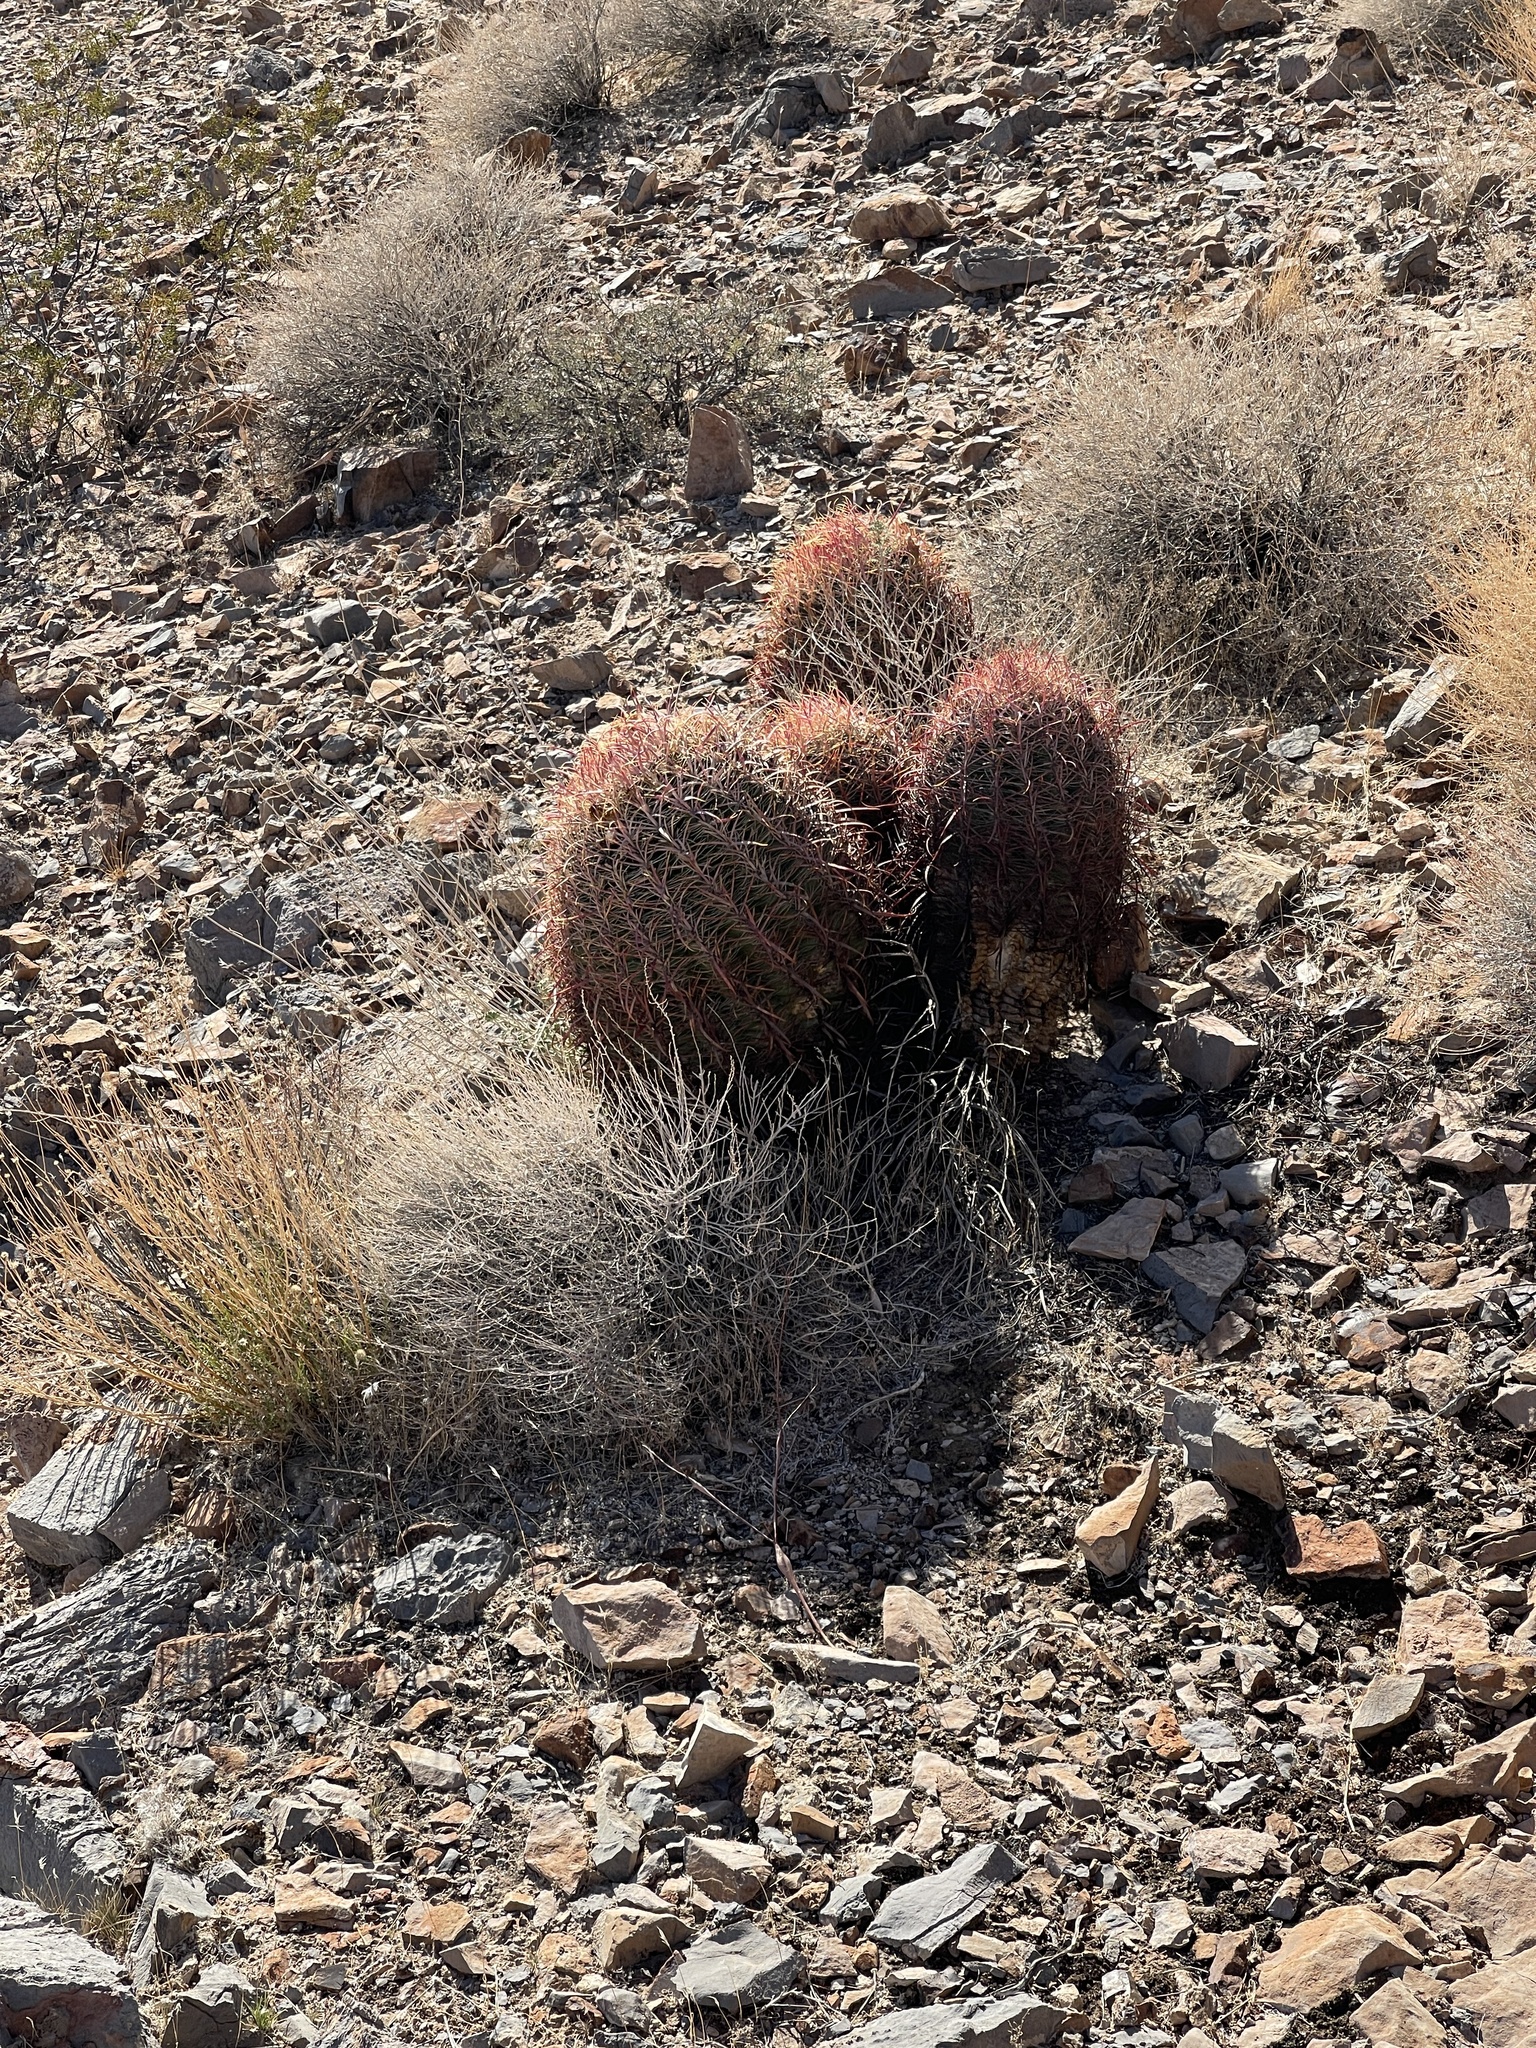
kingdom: Plantae
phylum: Tracheophyta
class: Magnoliopsida
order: Caryophyllales
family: Cactaceae
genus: Ferocactus
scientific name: Ferocactus cylindraceus
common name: California barrel cactus
